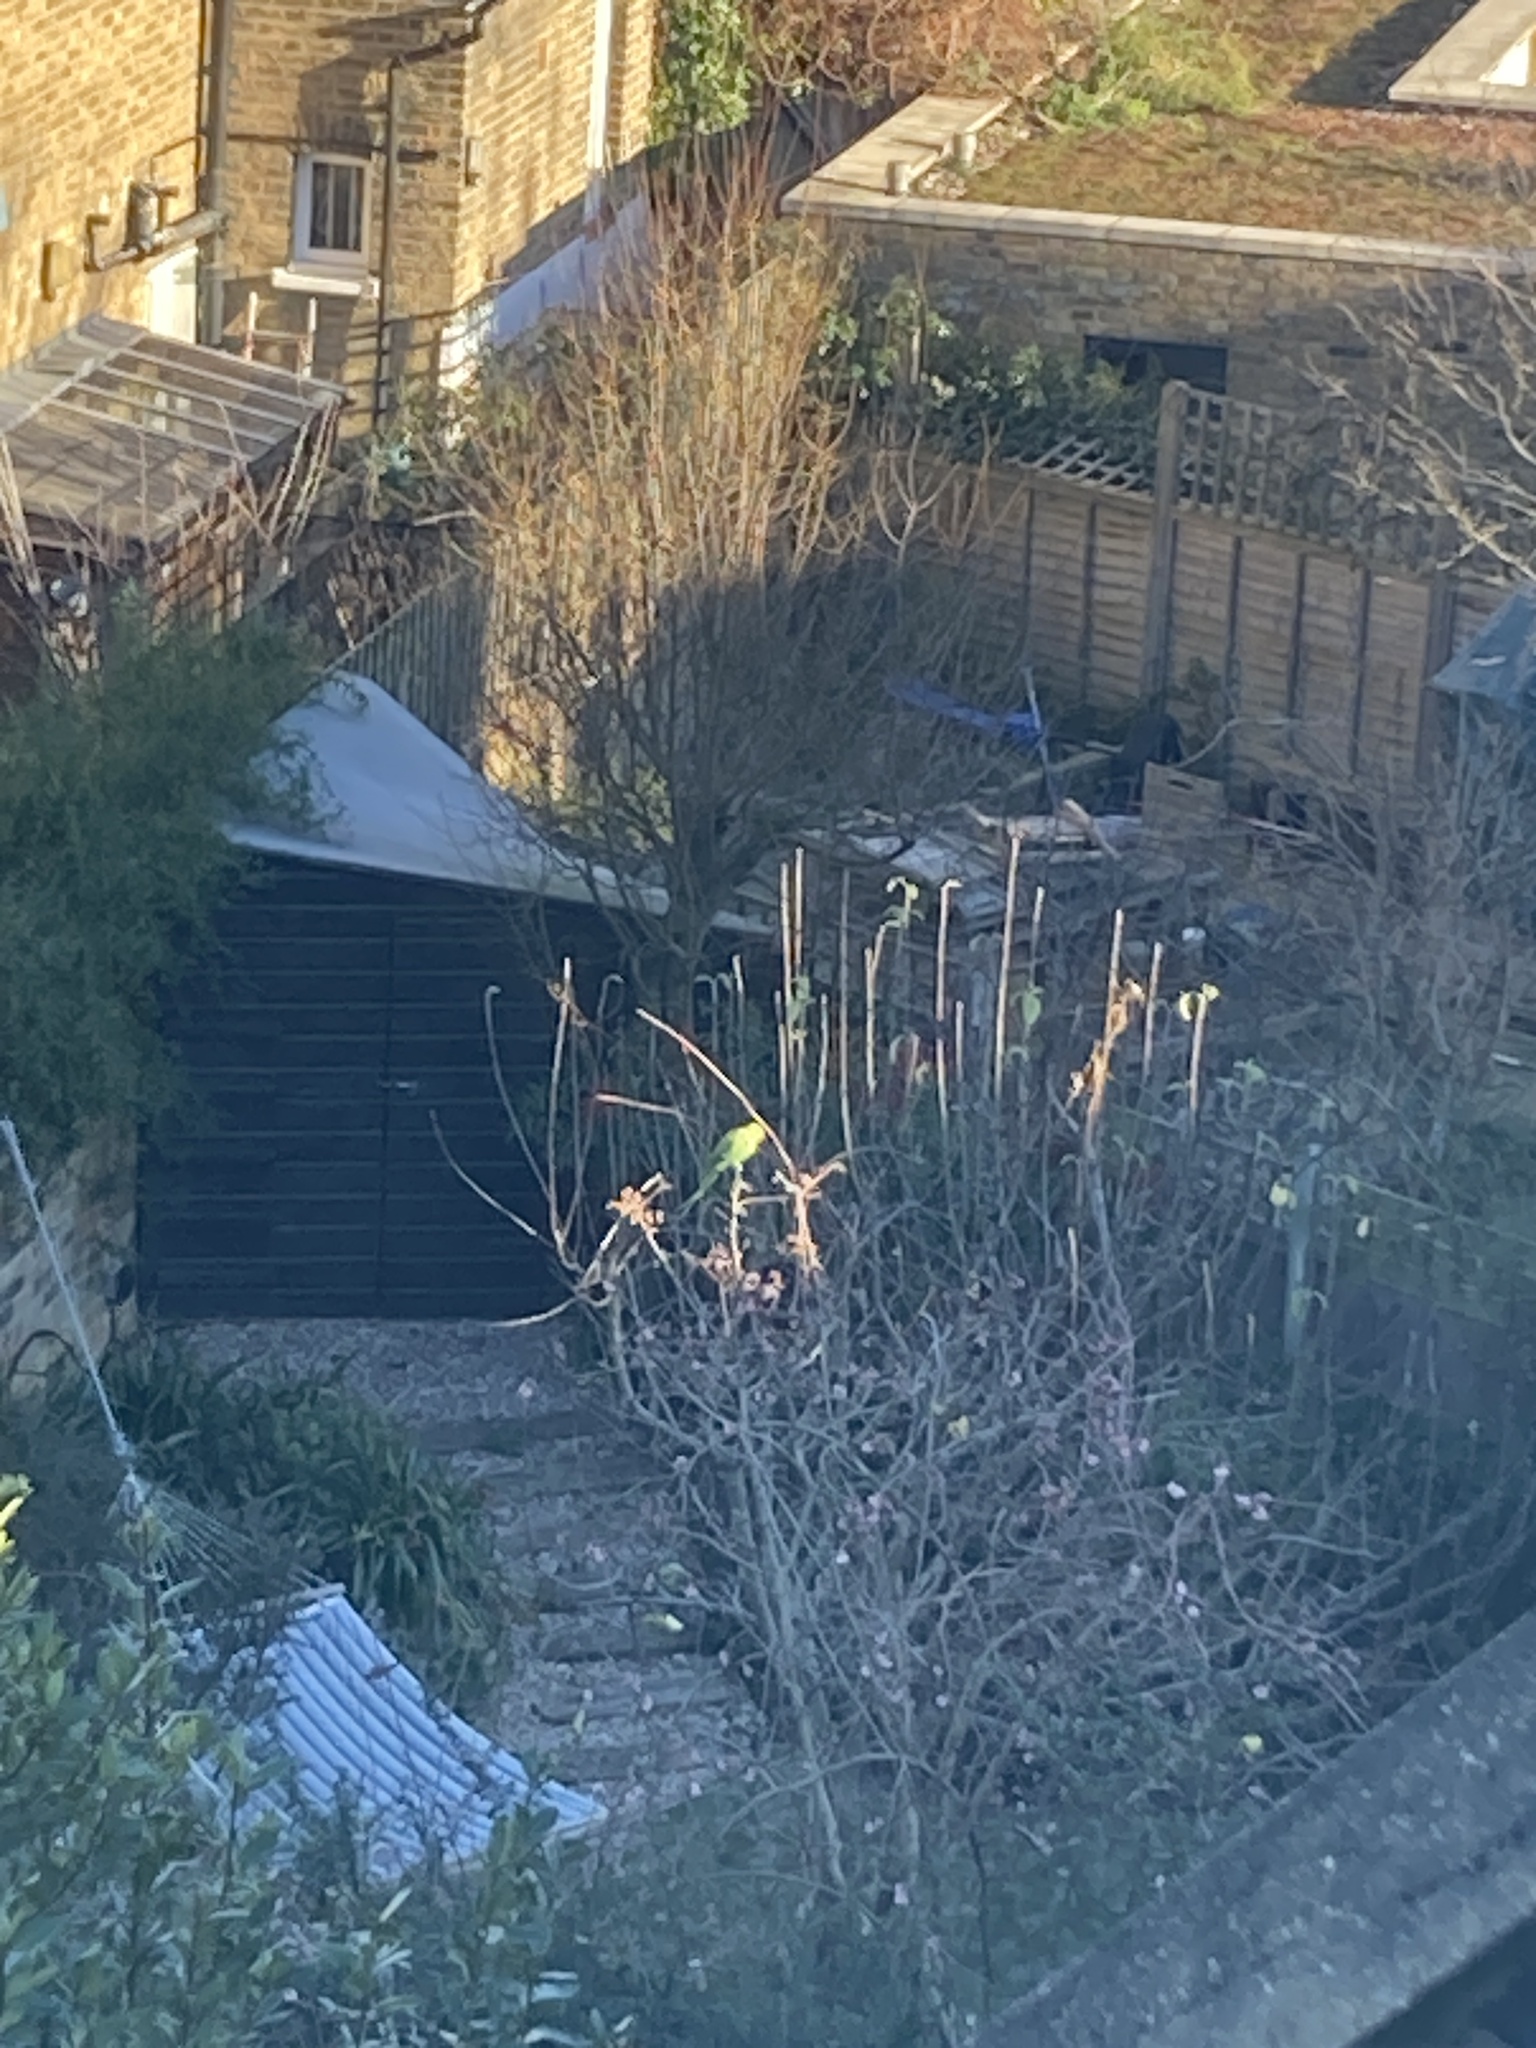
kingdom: Animalia
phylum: Chordata
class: Aves
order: Psittaciformes
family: Psittacidae
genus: Psittacula
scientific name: Psittacula krameri
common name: Rose-ringed parakeet
